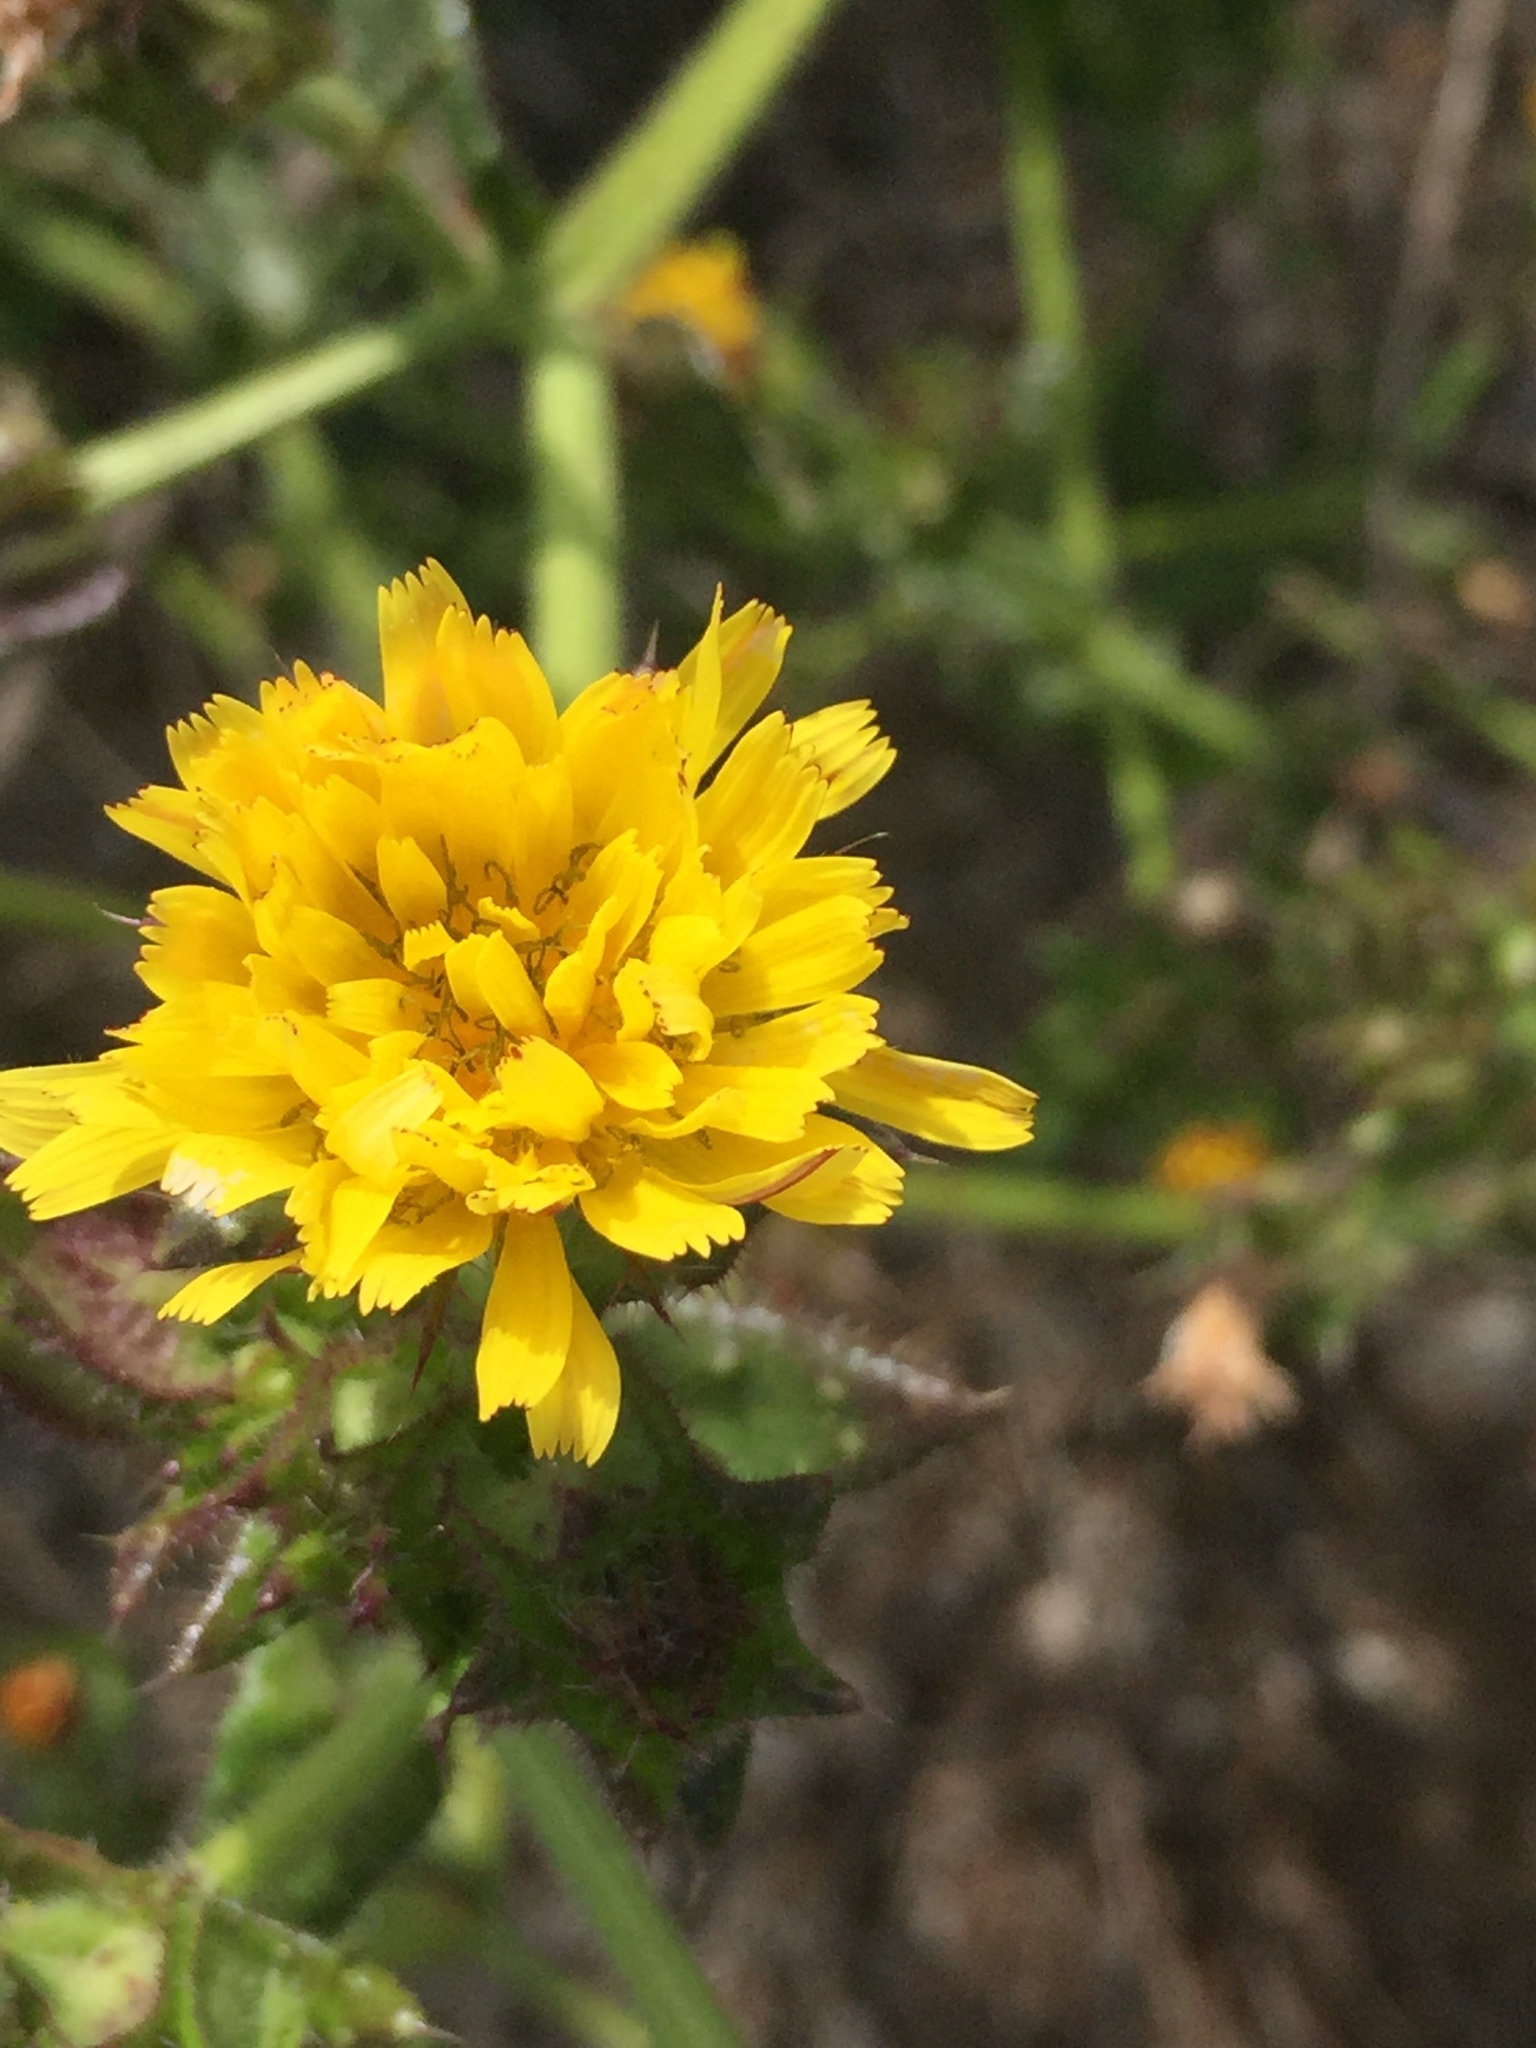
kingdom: Plantae
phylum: Tracheophyta
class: Magnoliopsida
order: Asterales
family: Asteraceae
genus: Helminthotheca
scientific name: Helminthotheca echioides
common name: Ox-tongue
